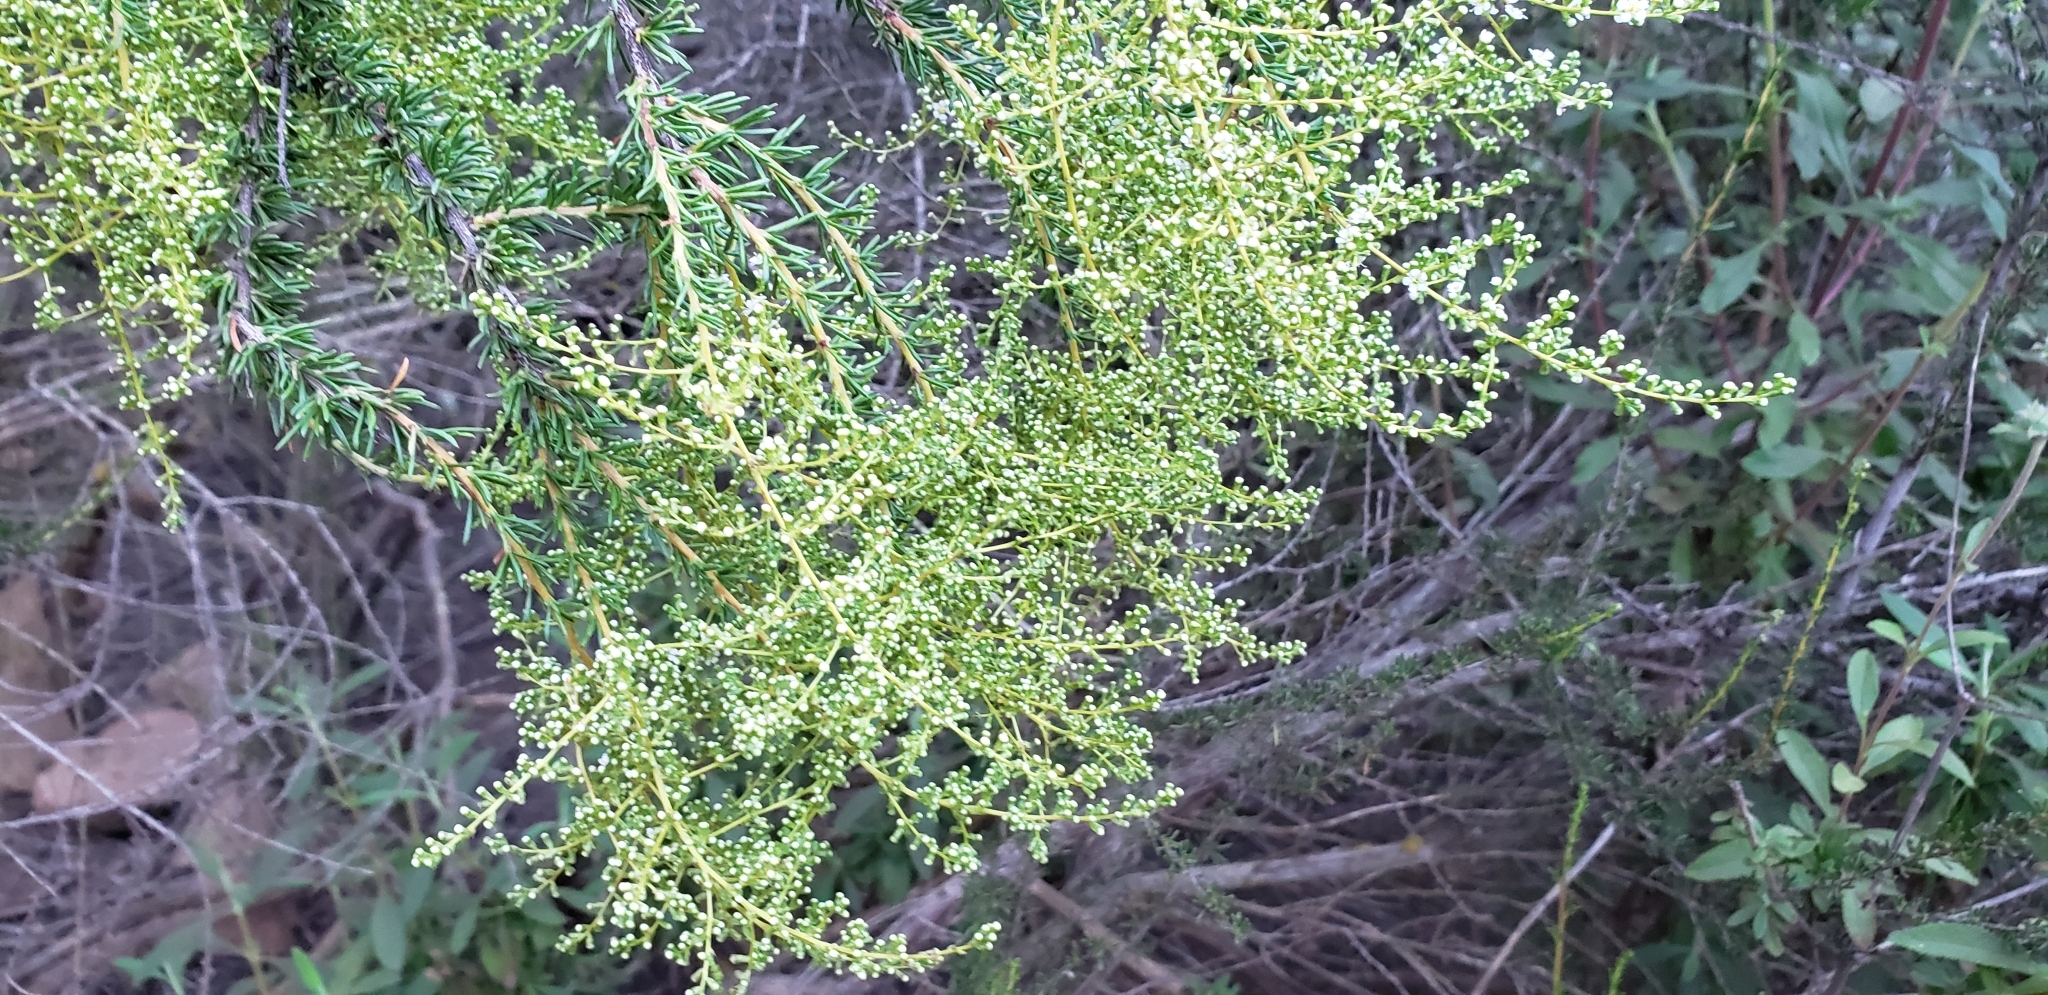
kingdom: Plantae
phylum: Tracheophyta
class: Magnoliopsida
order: Rosales
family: Rosaceae
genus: Adenostoma
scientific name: Adenostoma fasciculatum
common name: Chamise
